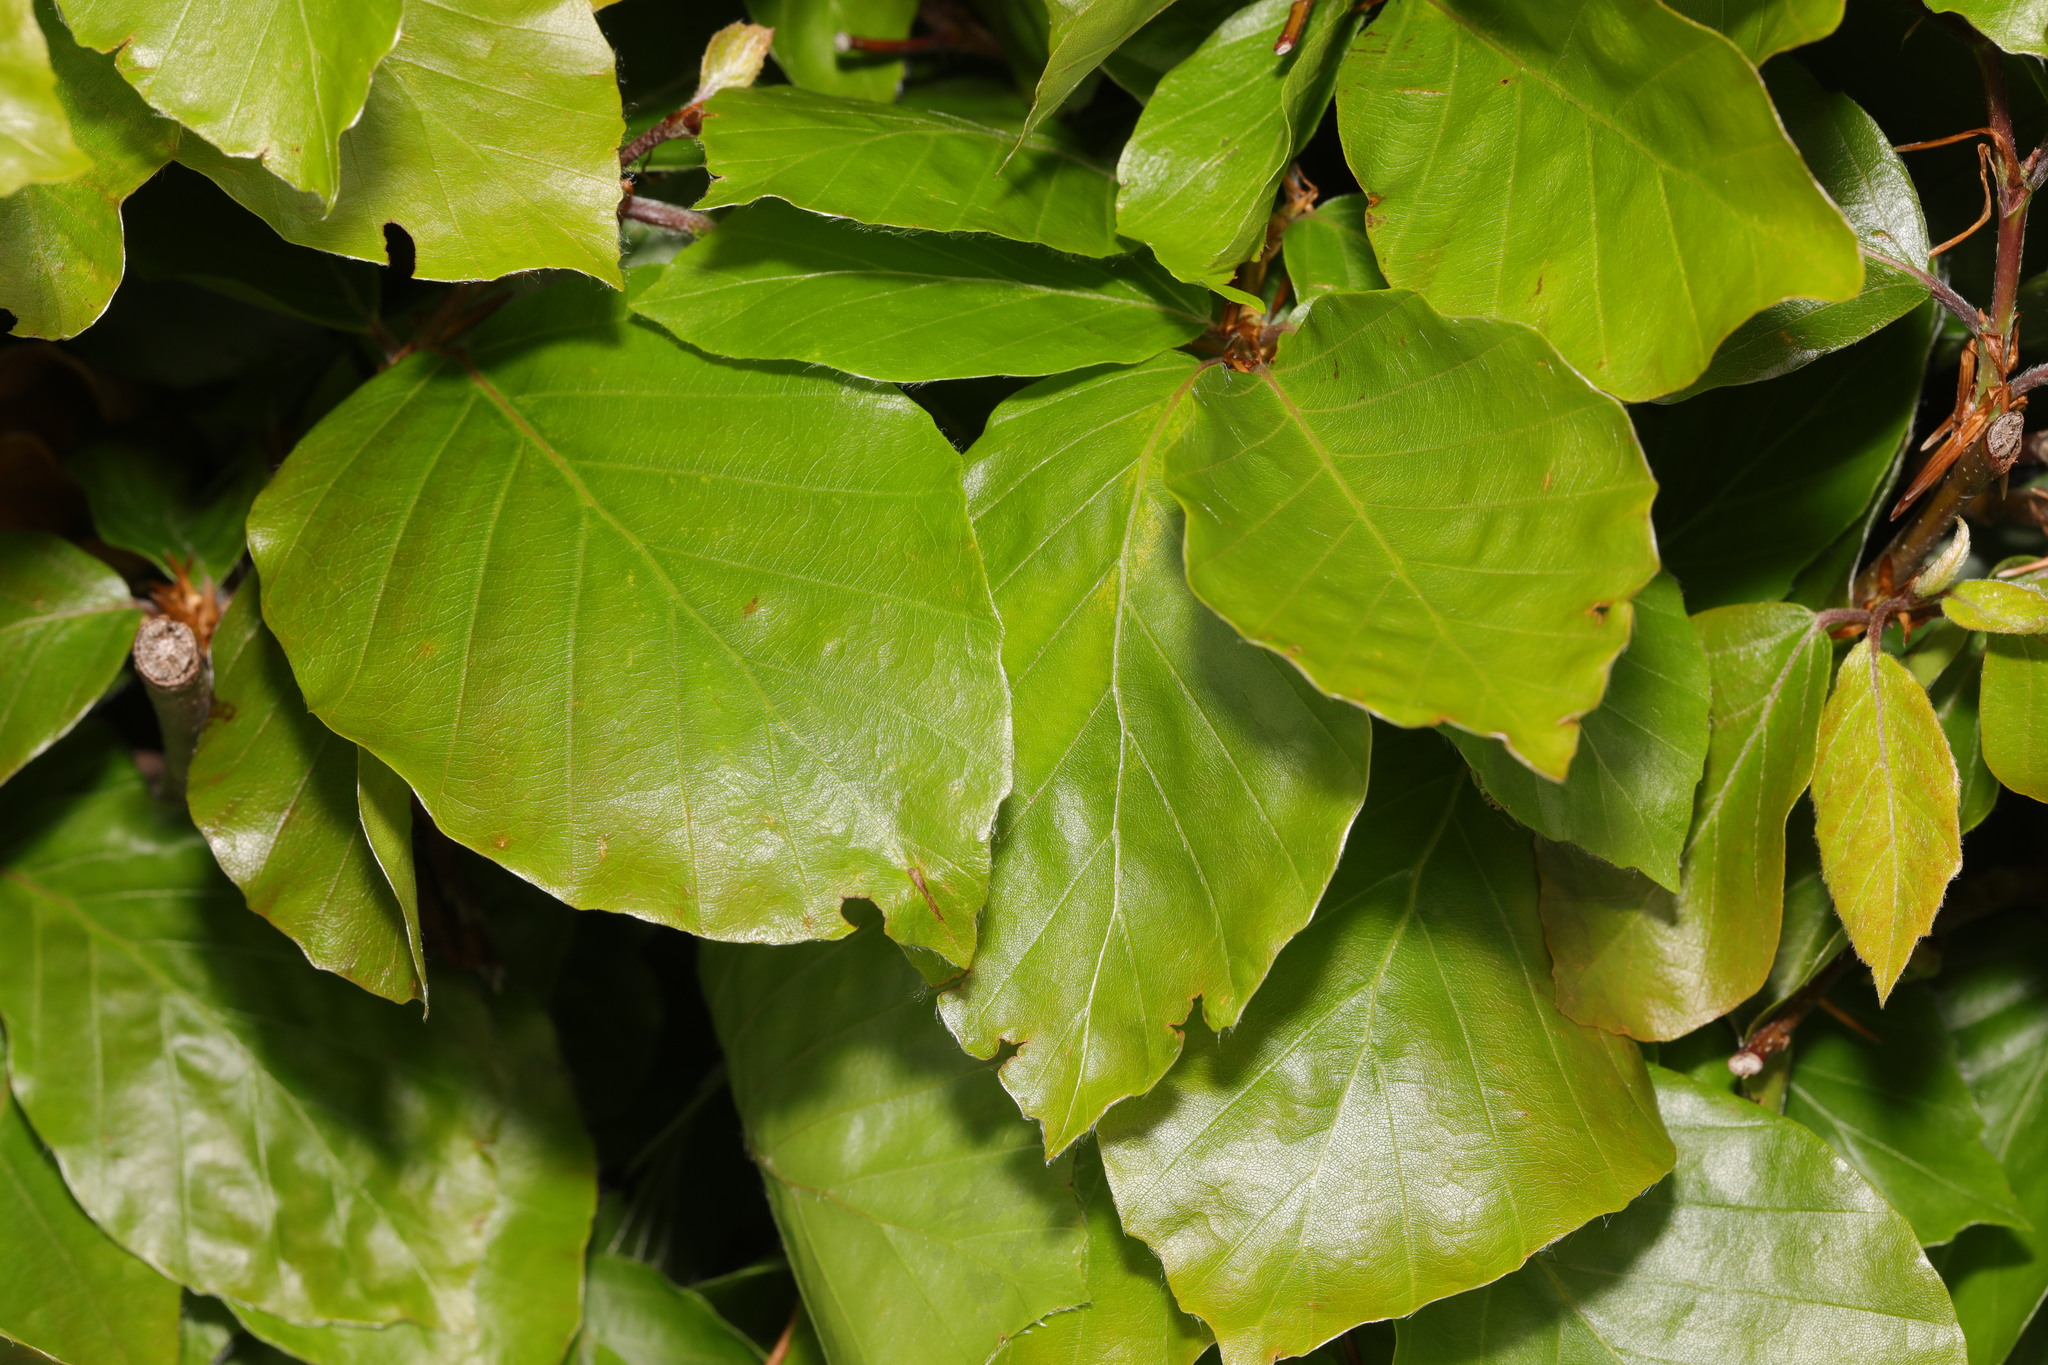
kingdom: Plantae
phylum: Tracheophyta
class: Magnoliopsida
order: Fagales
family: Fagaceae
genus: Fagus
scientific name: Fagus sylvatica
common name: Beech
